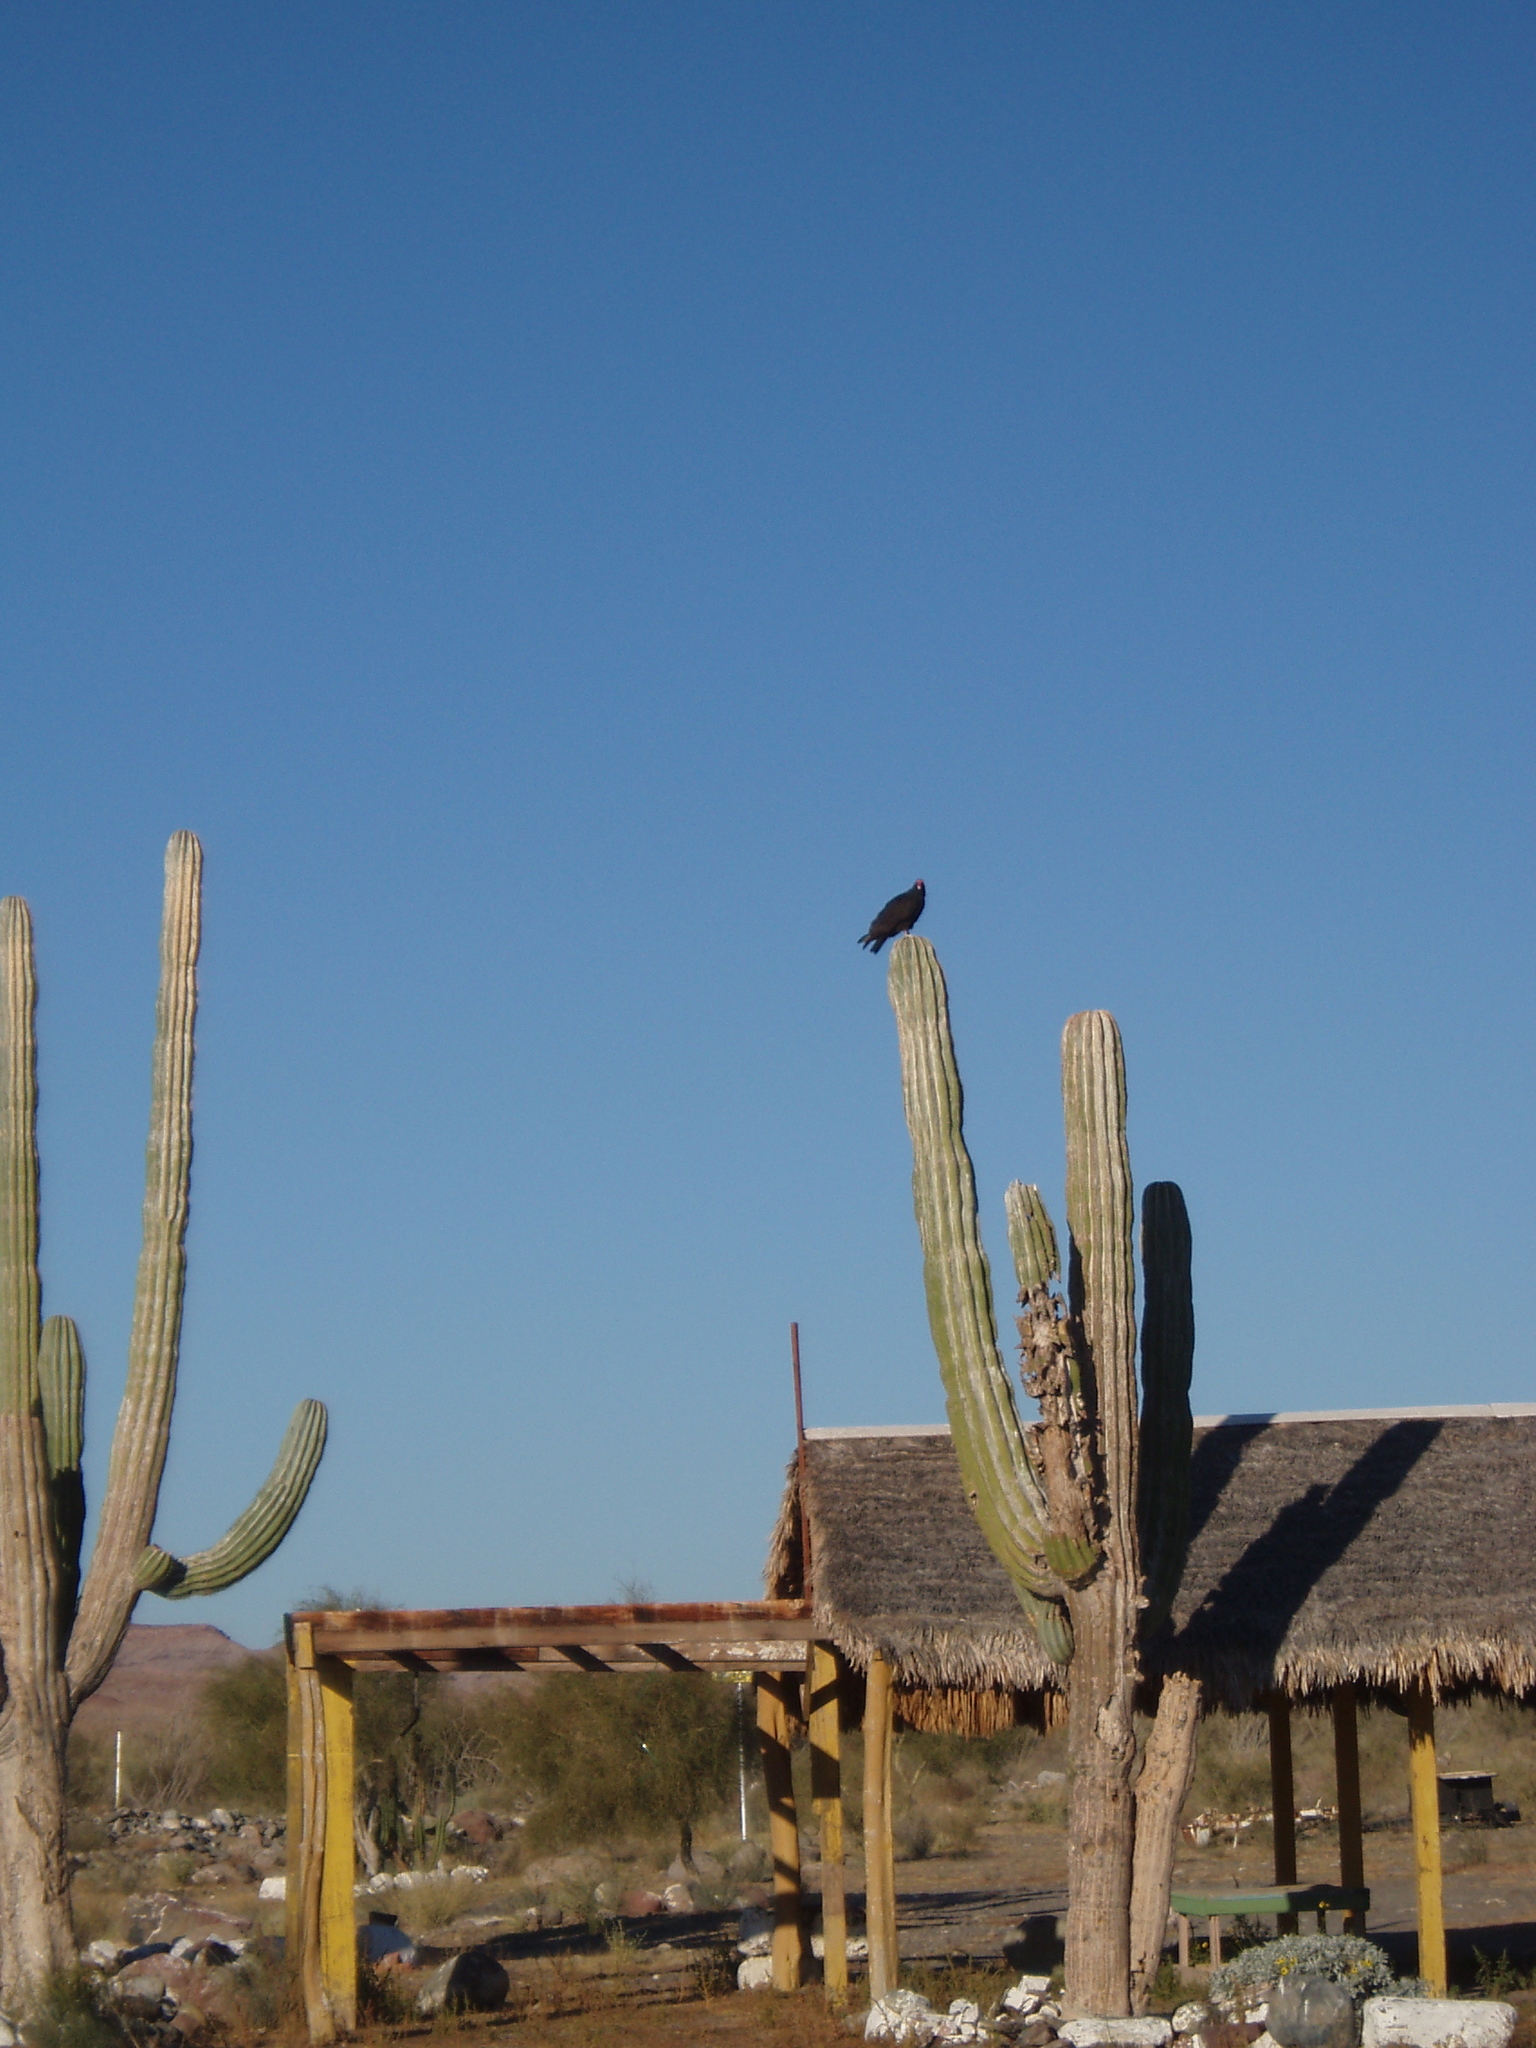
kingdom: Plantae
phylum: Tracheophyta
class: Magnoliopsida
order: Caryophyllales
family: Cactaceae
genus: Pachycereus
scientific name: Pachycereus pringlei
